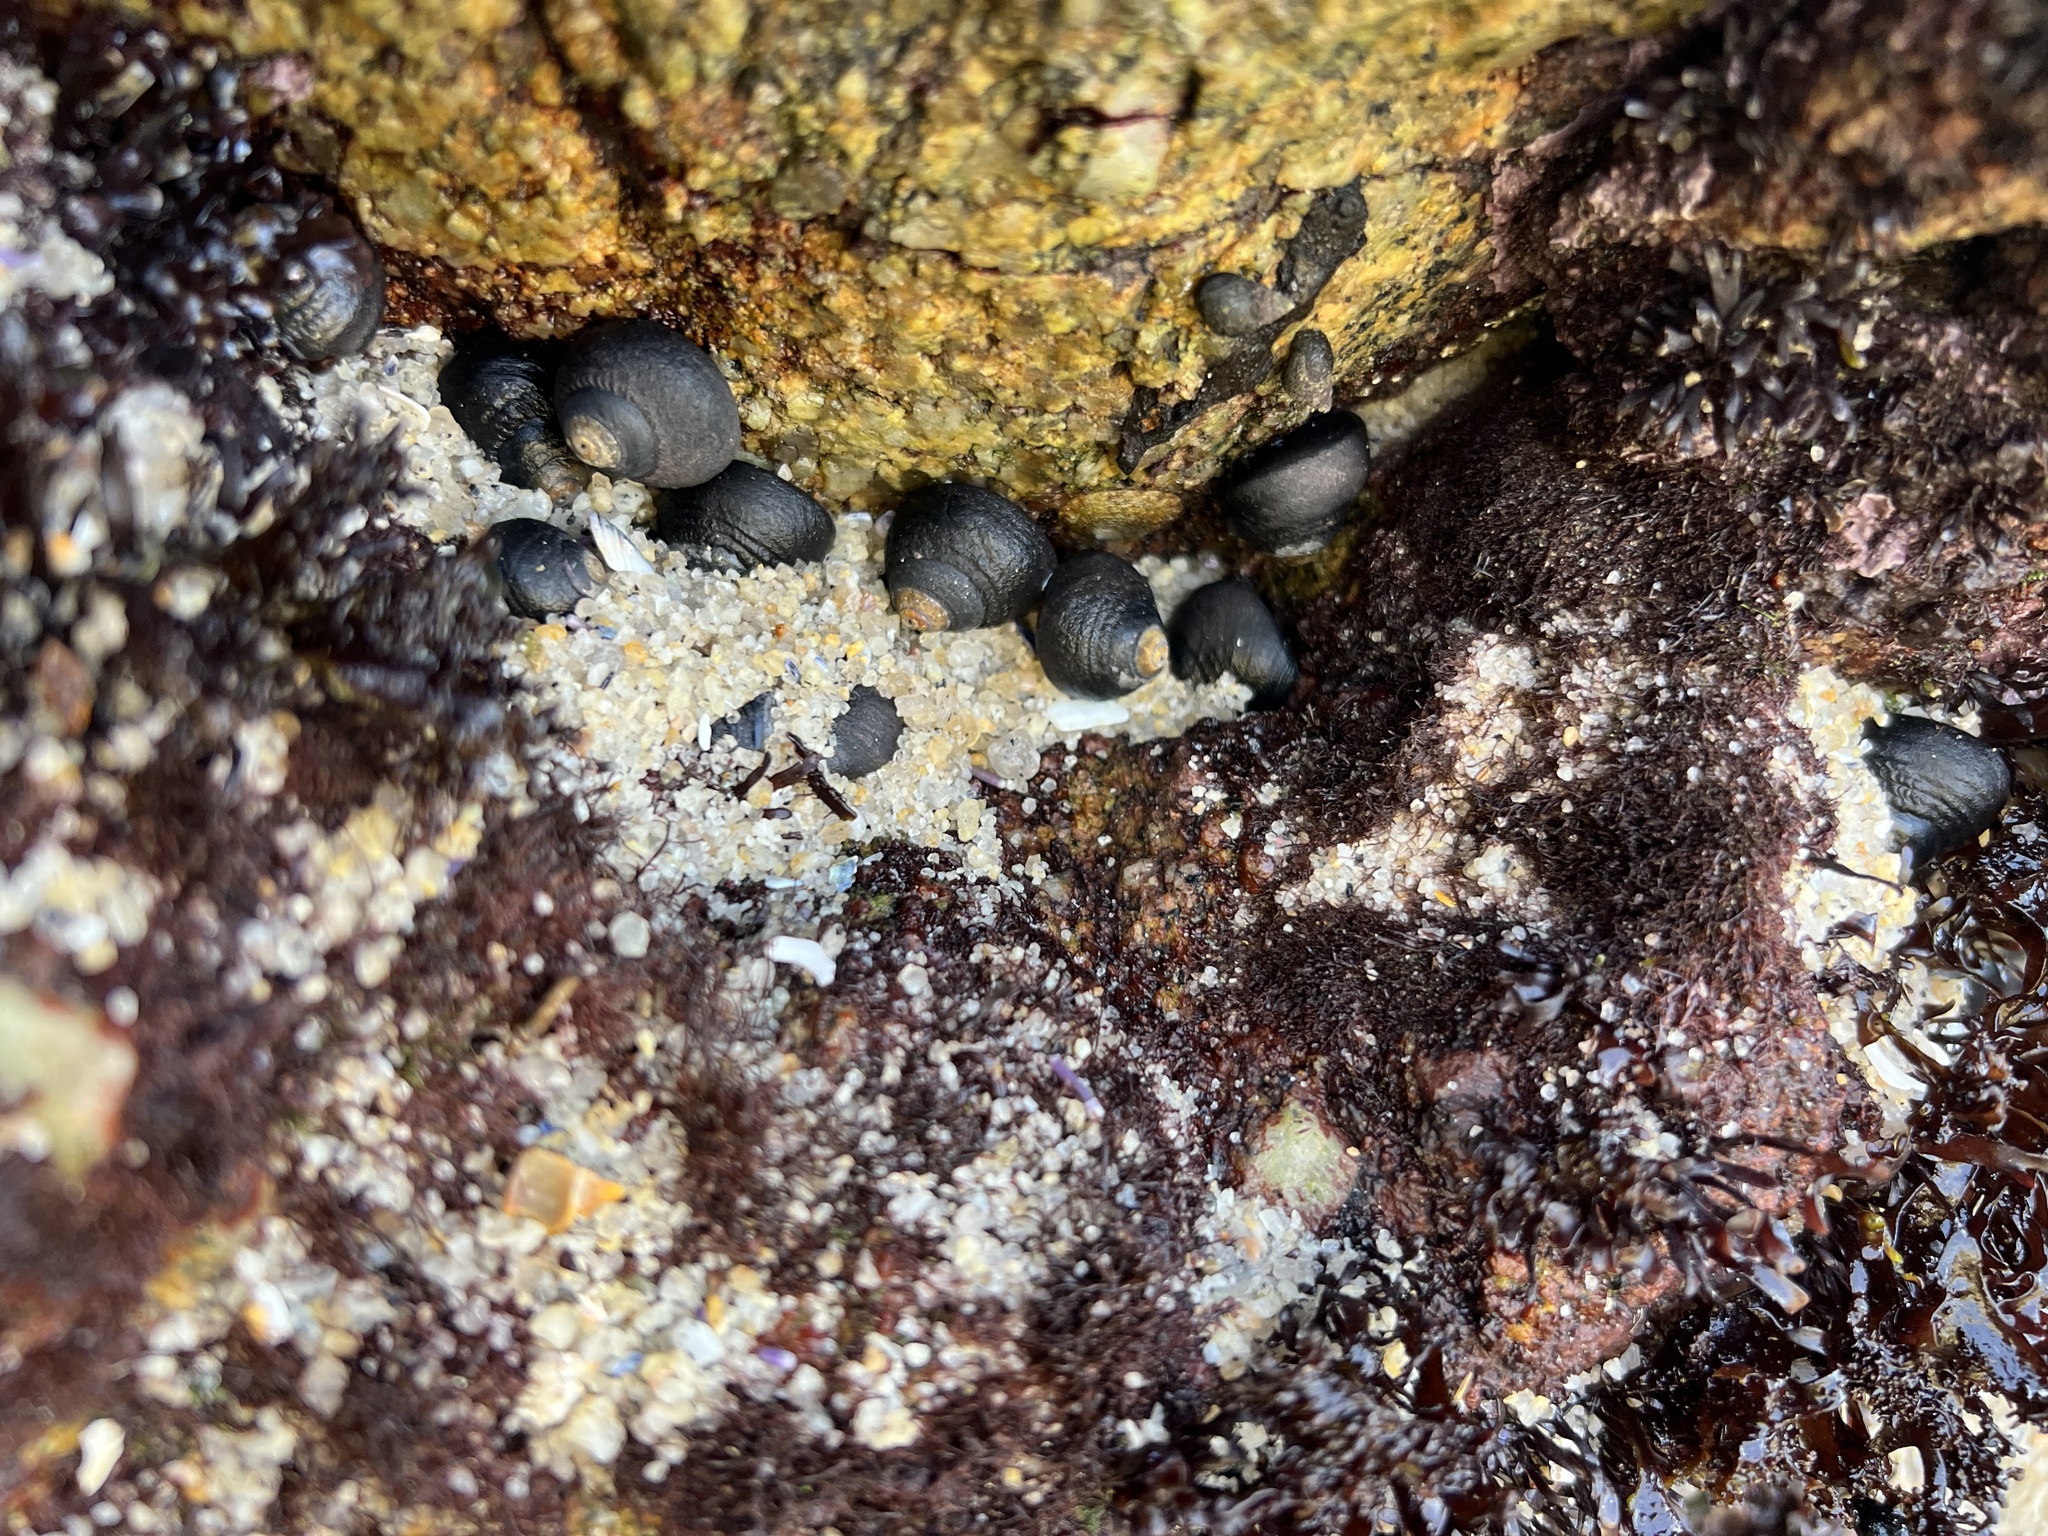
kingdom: Animalia
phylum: Mollusca
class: Gastropoda
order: Trochida
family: Tegulidae
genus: Tegula
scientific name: Tegula funebralis
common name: Black tegula
